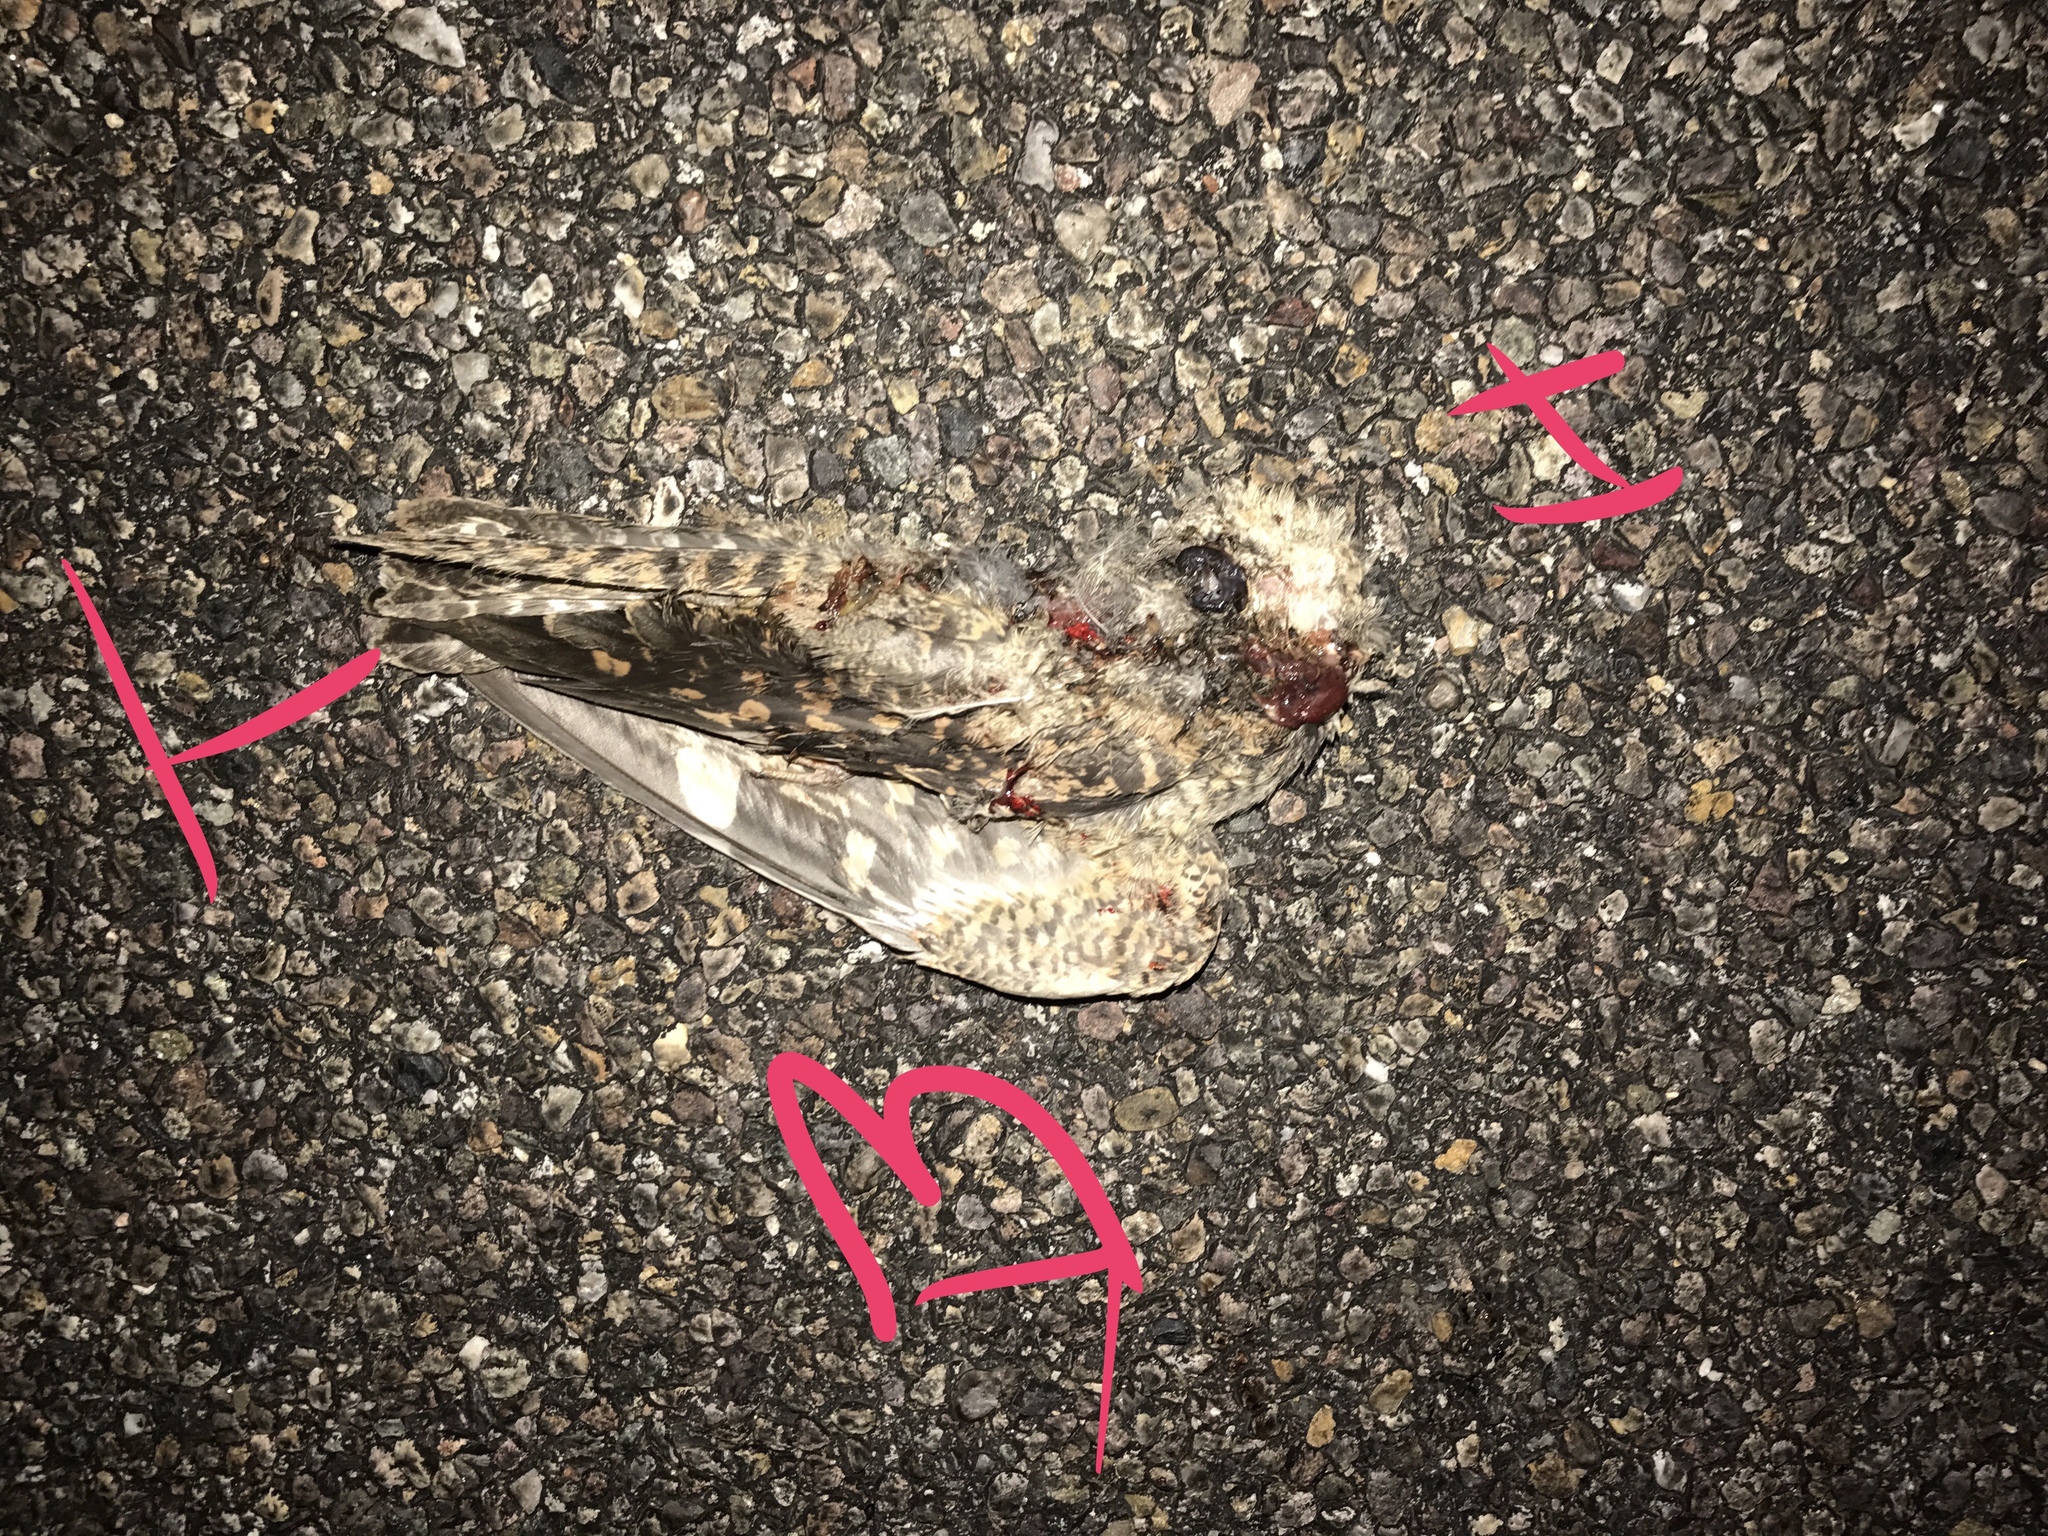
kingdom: Animalia
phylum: Chordata
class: Aves
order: Caprimulgiformes
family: Caprimulgidae
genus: Chordeiles
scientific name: Chordeiles acutipennis
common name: Lesser nighthawk
